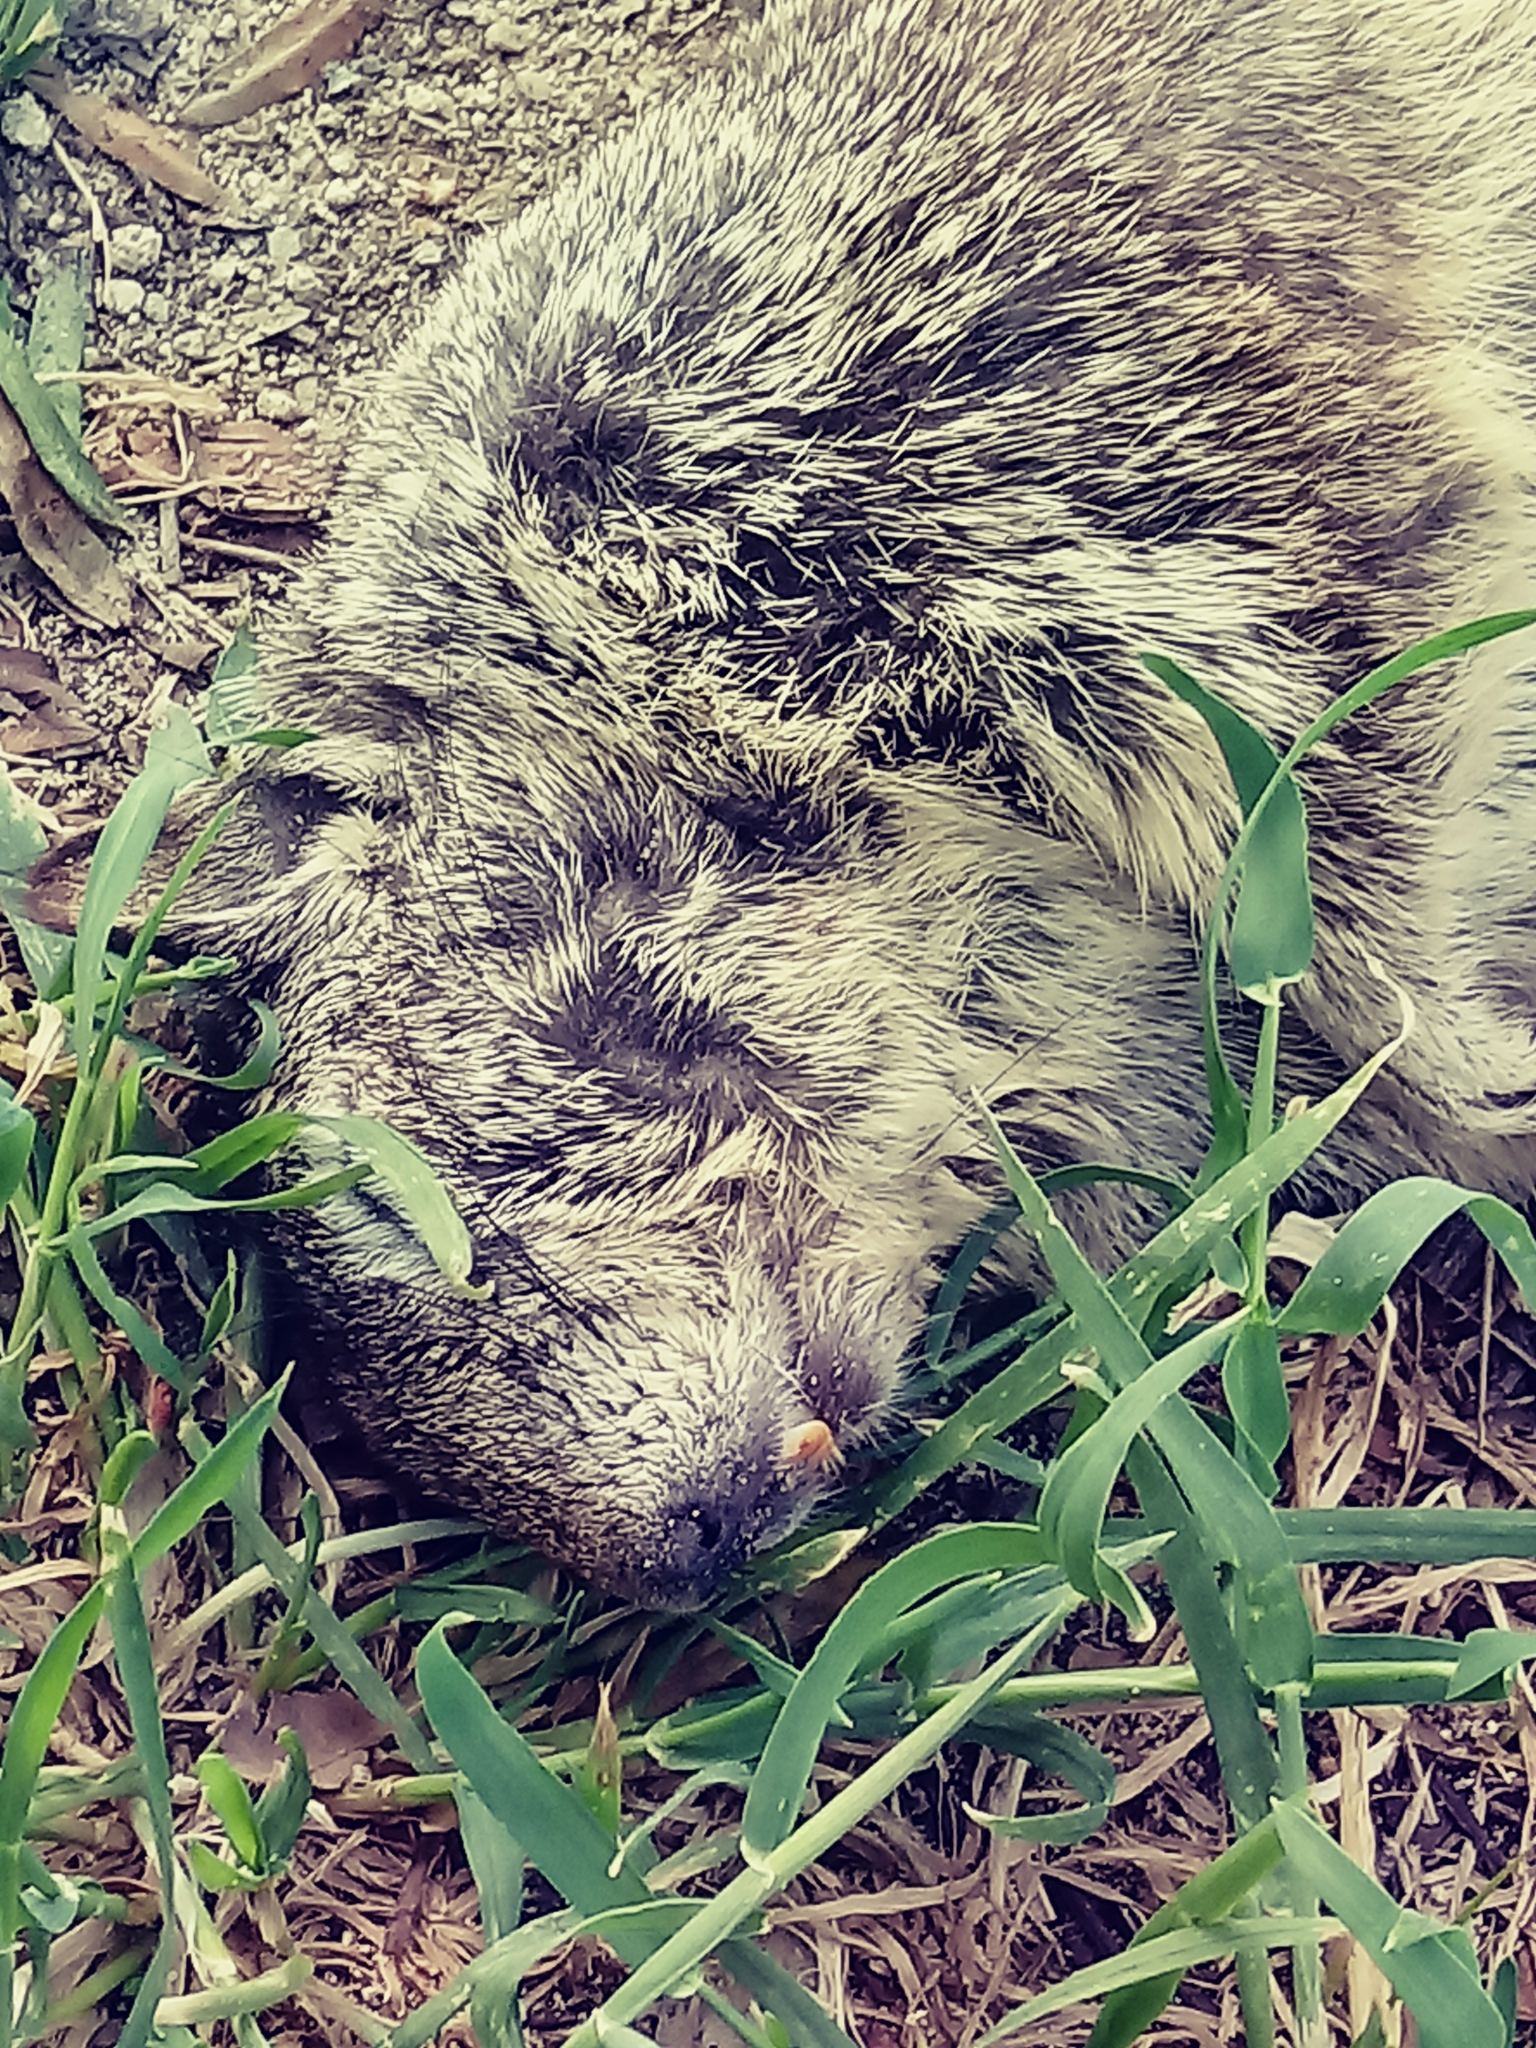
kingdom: Animalia
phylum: Chordata
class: Mammalia
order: Rodentia
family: Sciuridae
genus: Otospermophilus
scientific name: Otospermophilus beecheyi
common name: California ground squirrel
